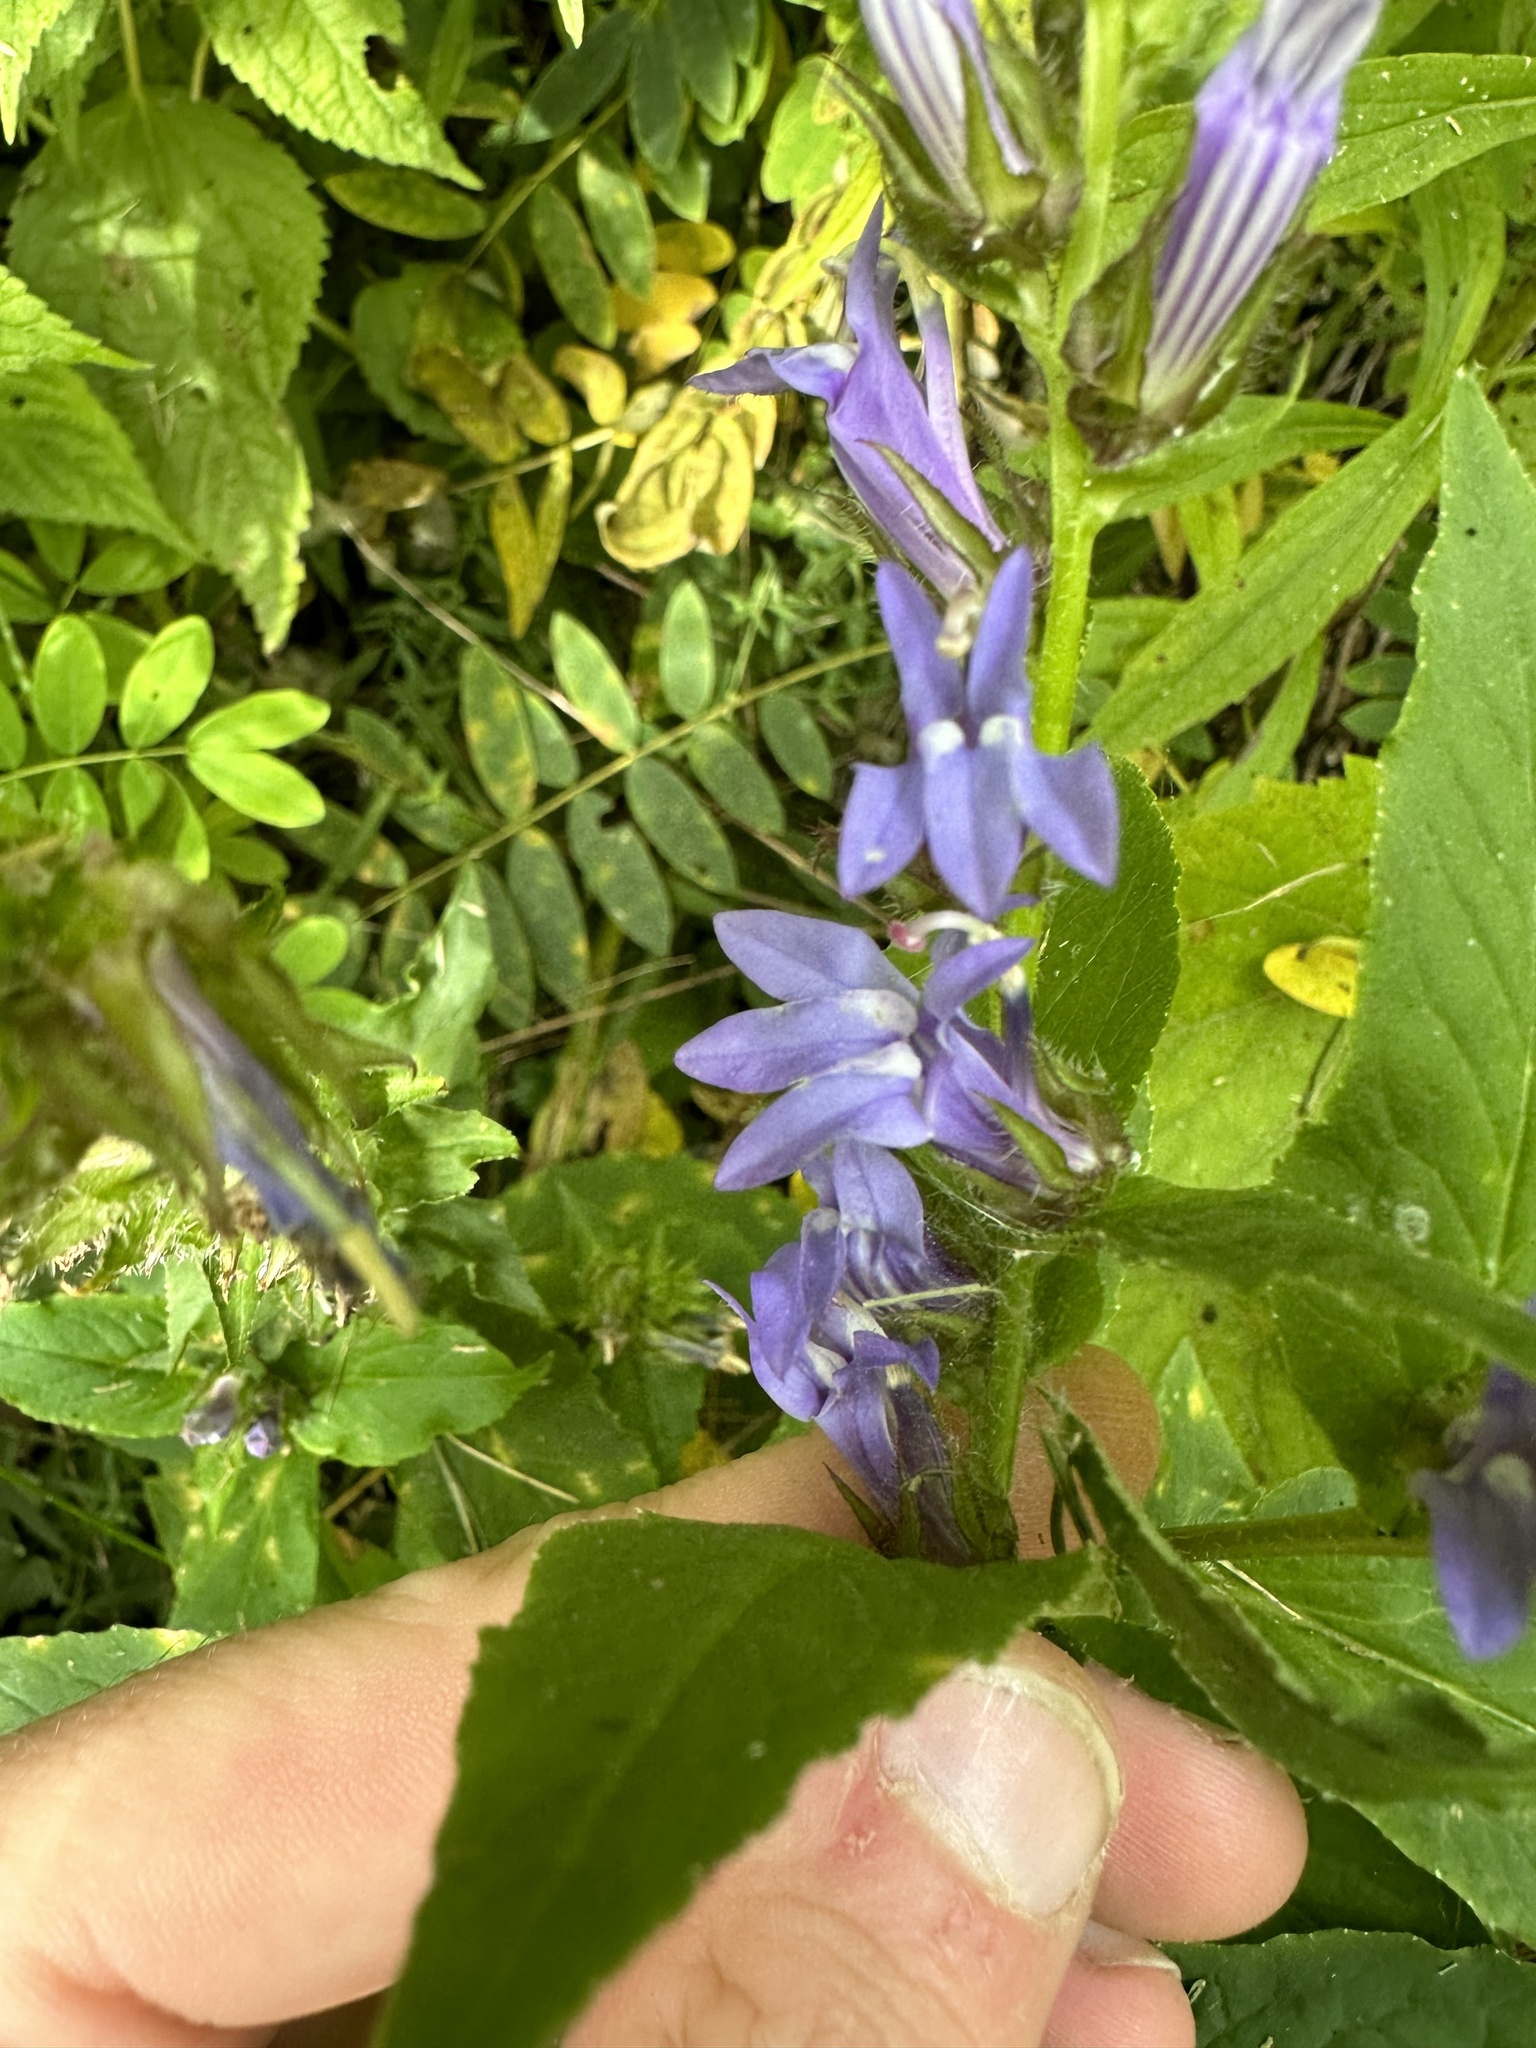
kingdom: Plantae
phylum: Tracheophyta
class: Magnoliopsida
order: Asterales
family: Campanulaceae
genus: Lobelia
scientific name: Lobelia siphilitica
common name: Great lobelia
